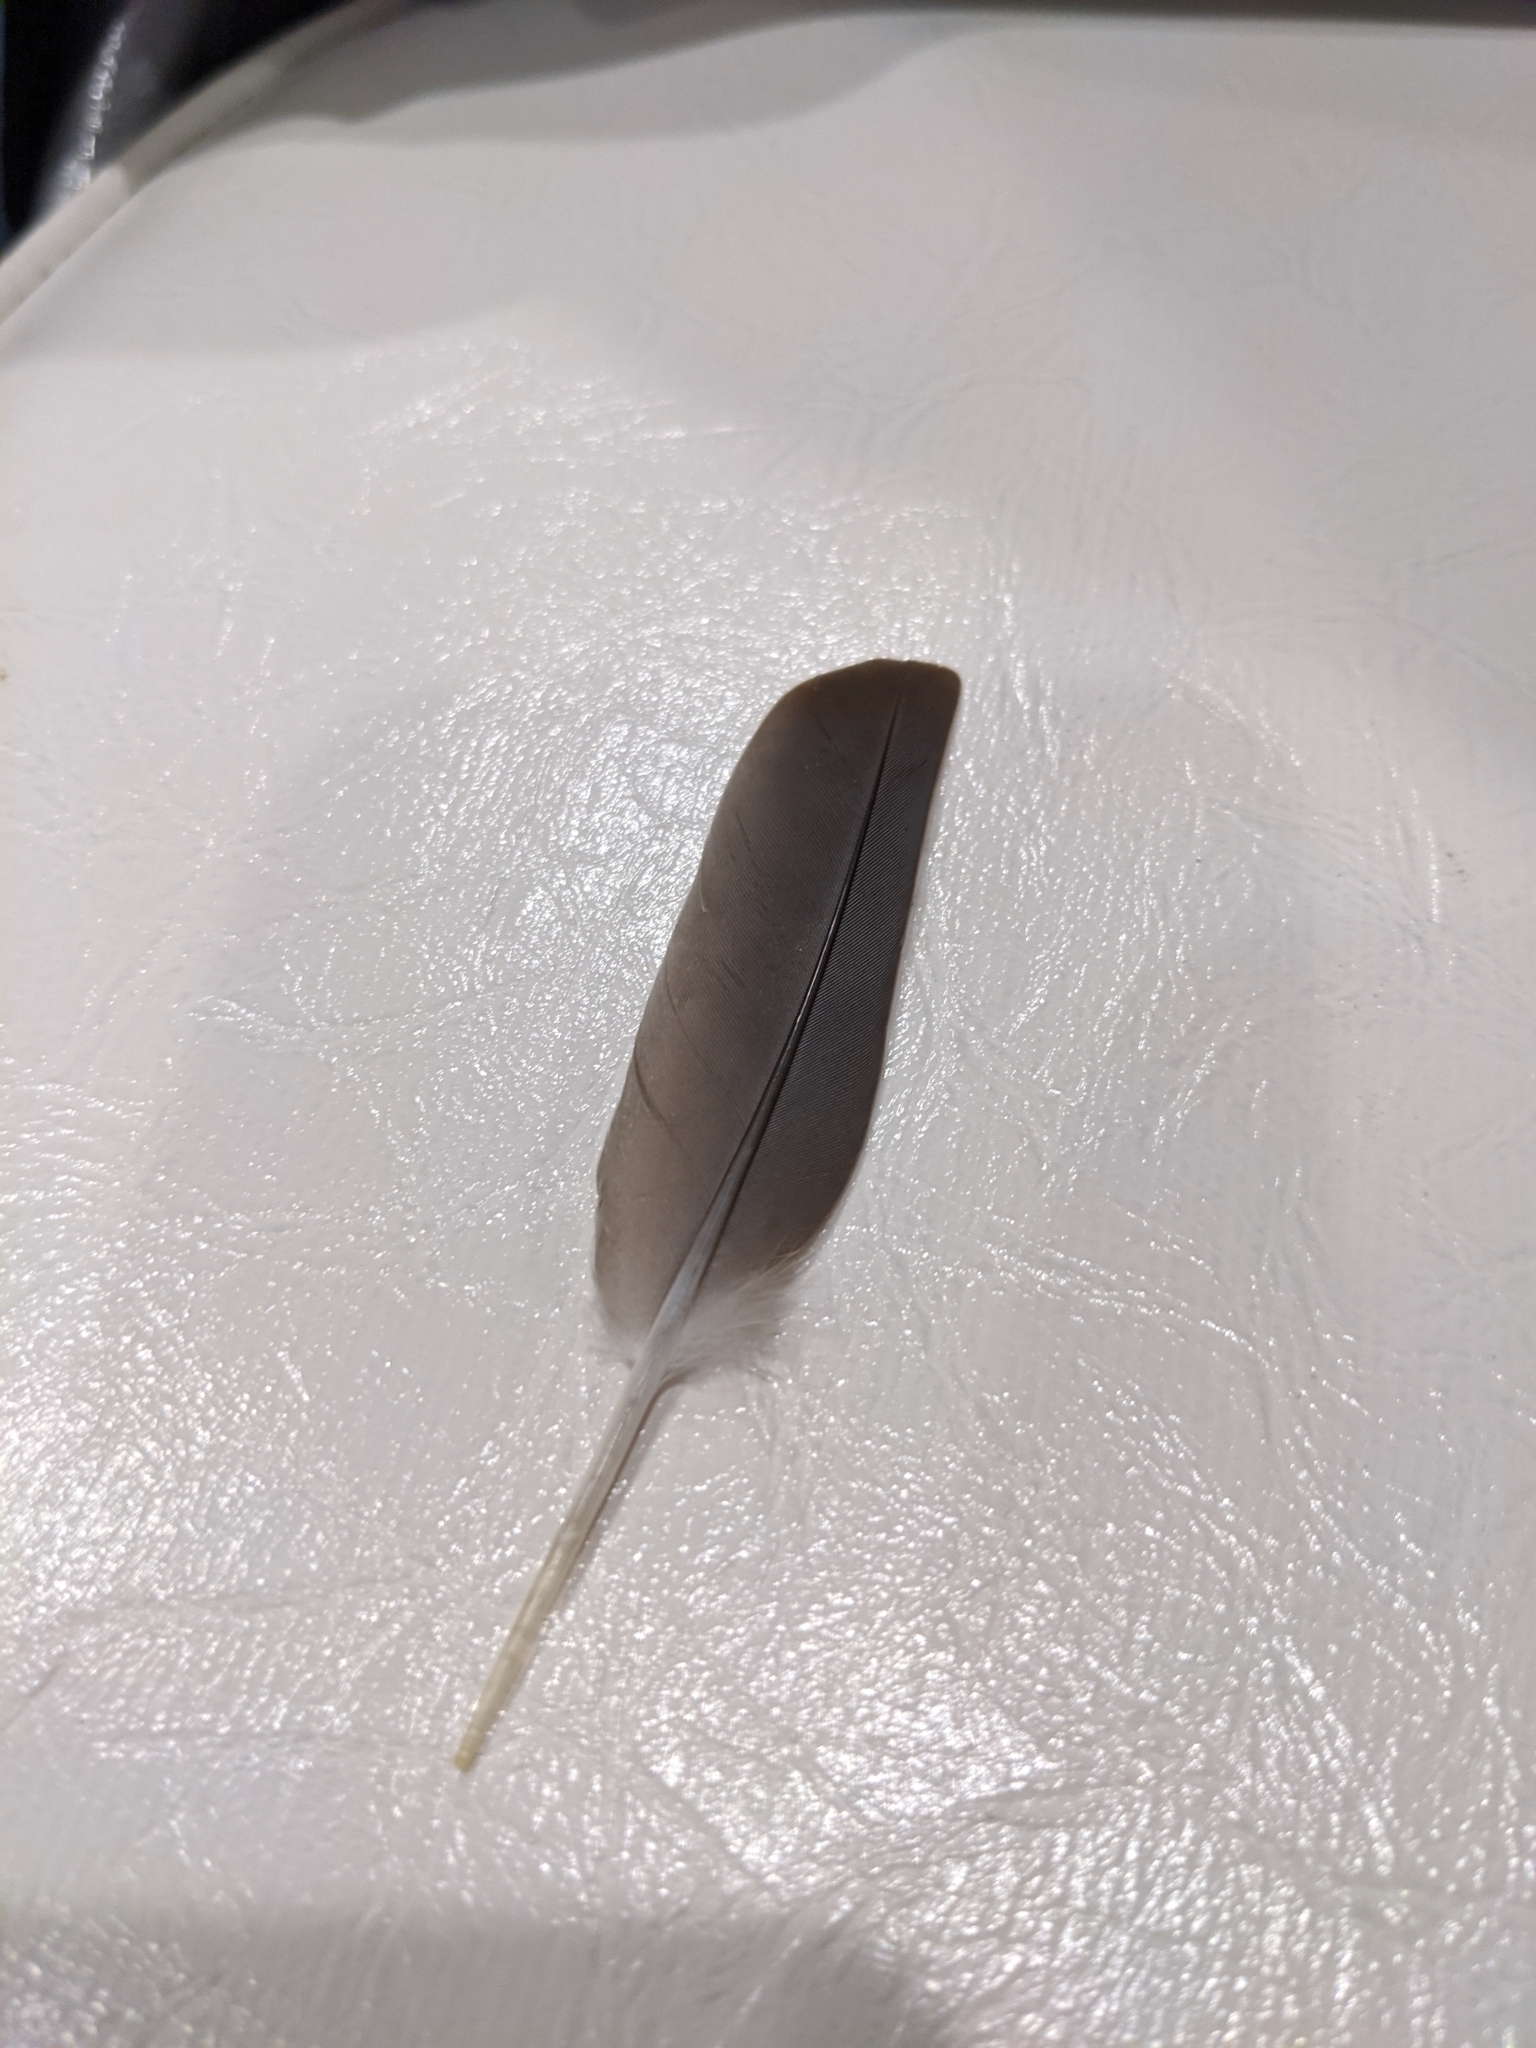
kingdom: Animalia
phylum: Chordata
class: Aves
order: Columbiformes
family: Columbidae
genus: Zenaida
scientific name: Zenaida macroura
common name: Mourning dove
